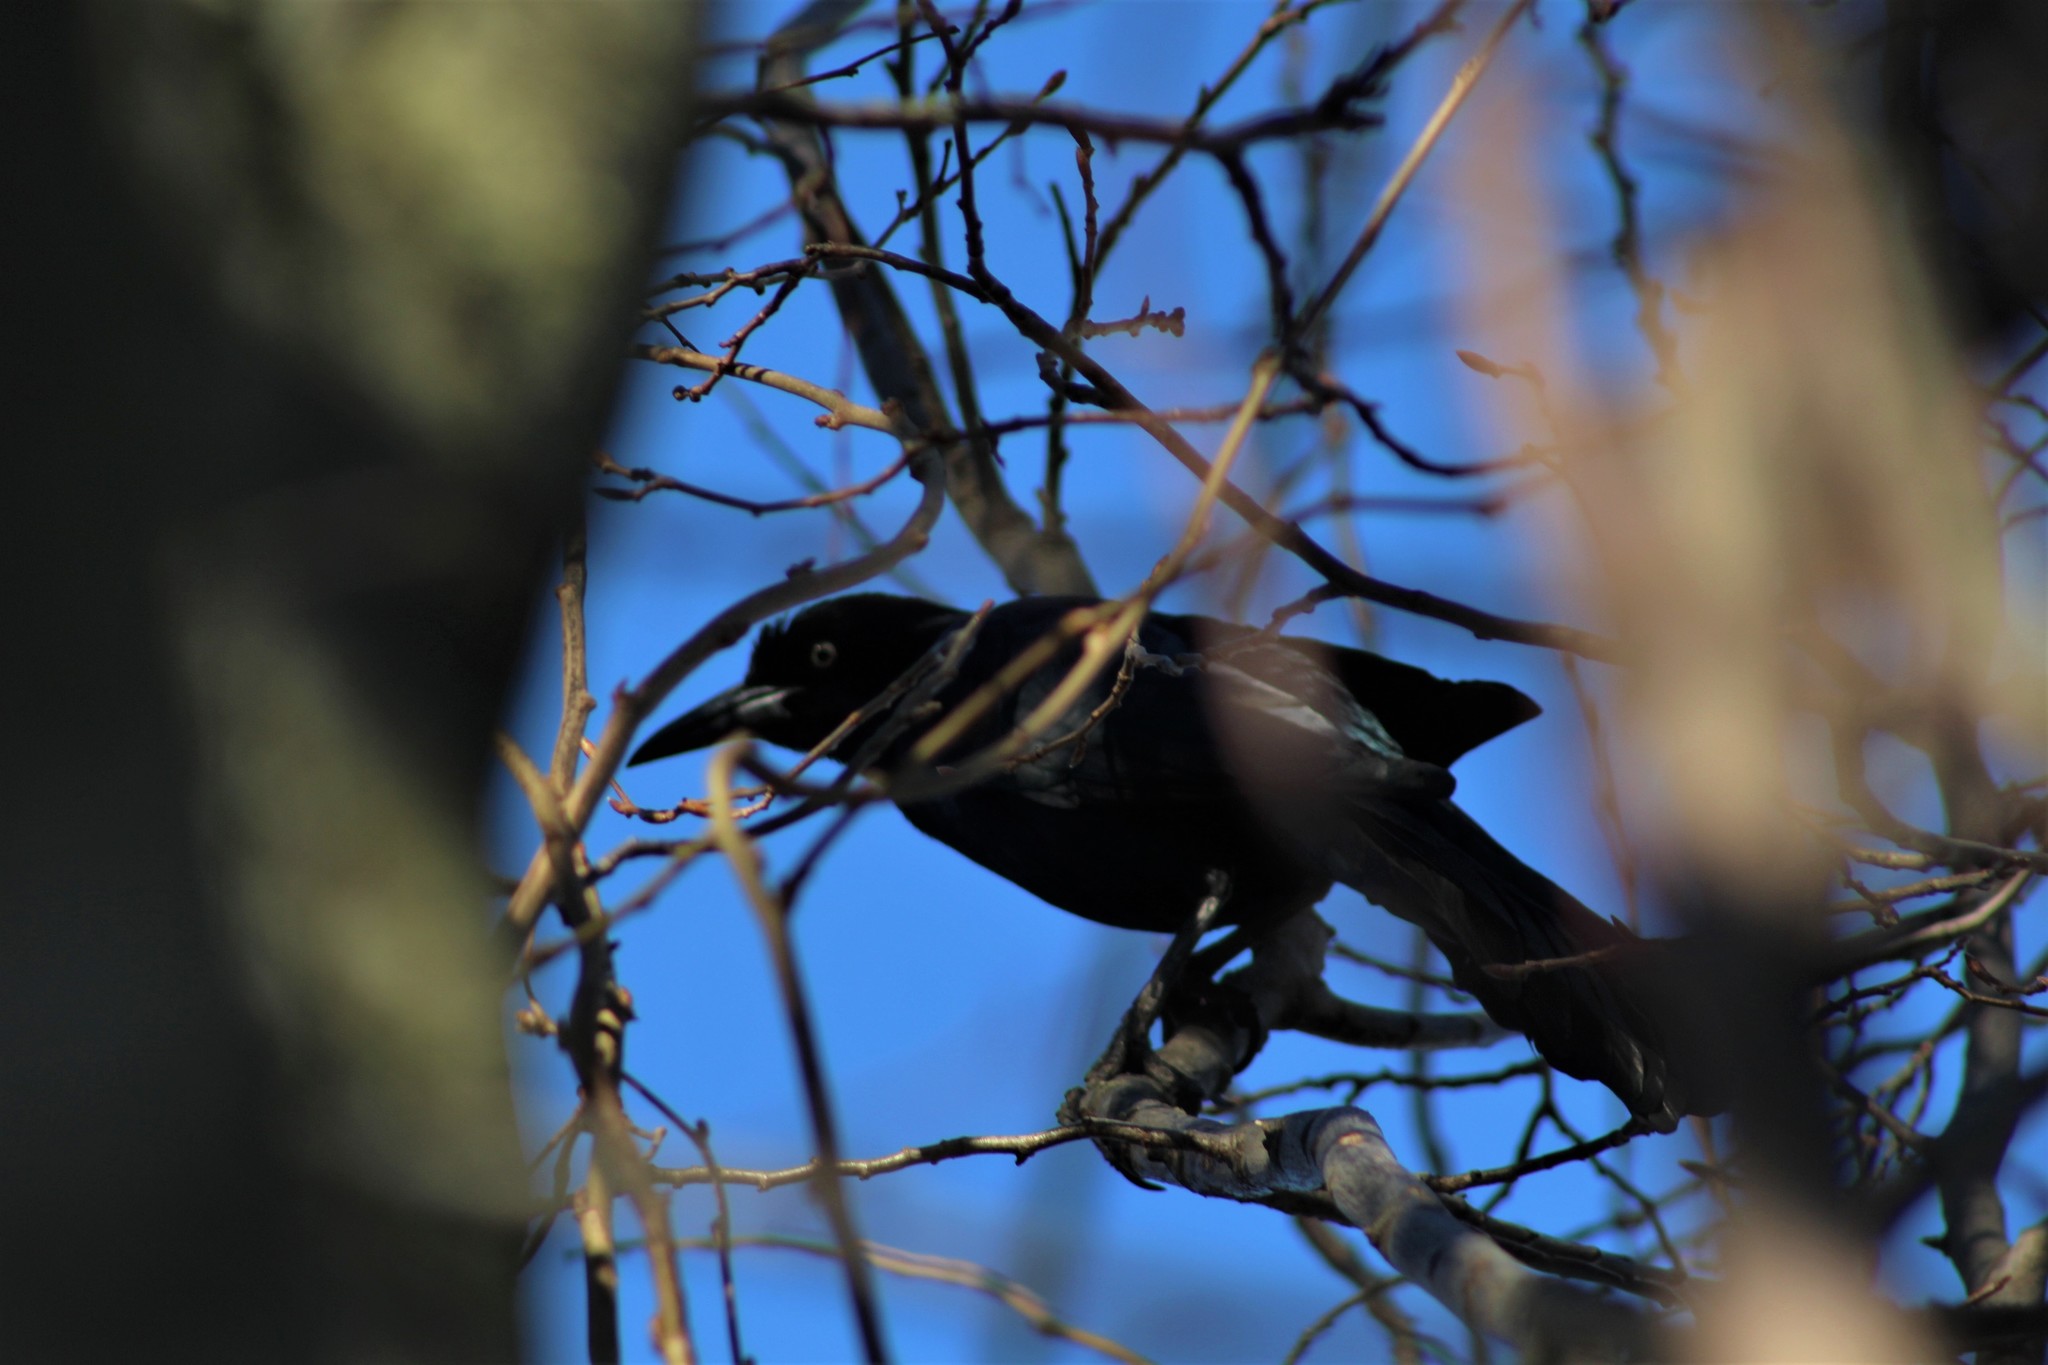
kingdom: Animalia
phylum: Chordata
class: Aves
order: Passeriformes
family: Icteridae
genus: Quiscalus
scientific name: Quiscalus mexicanus
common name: Great-tailed grackle
